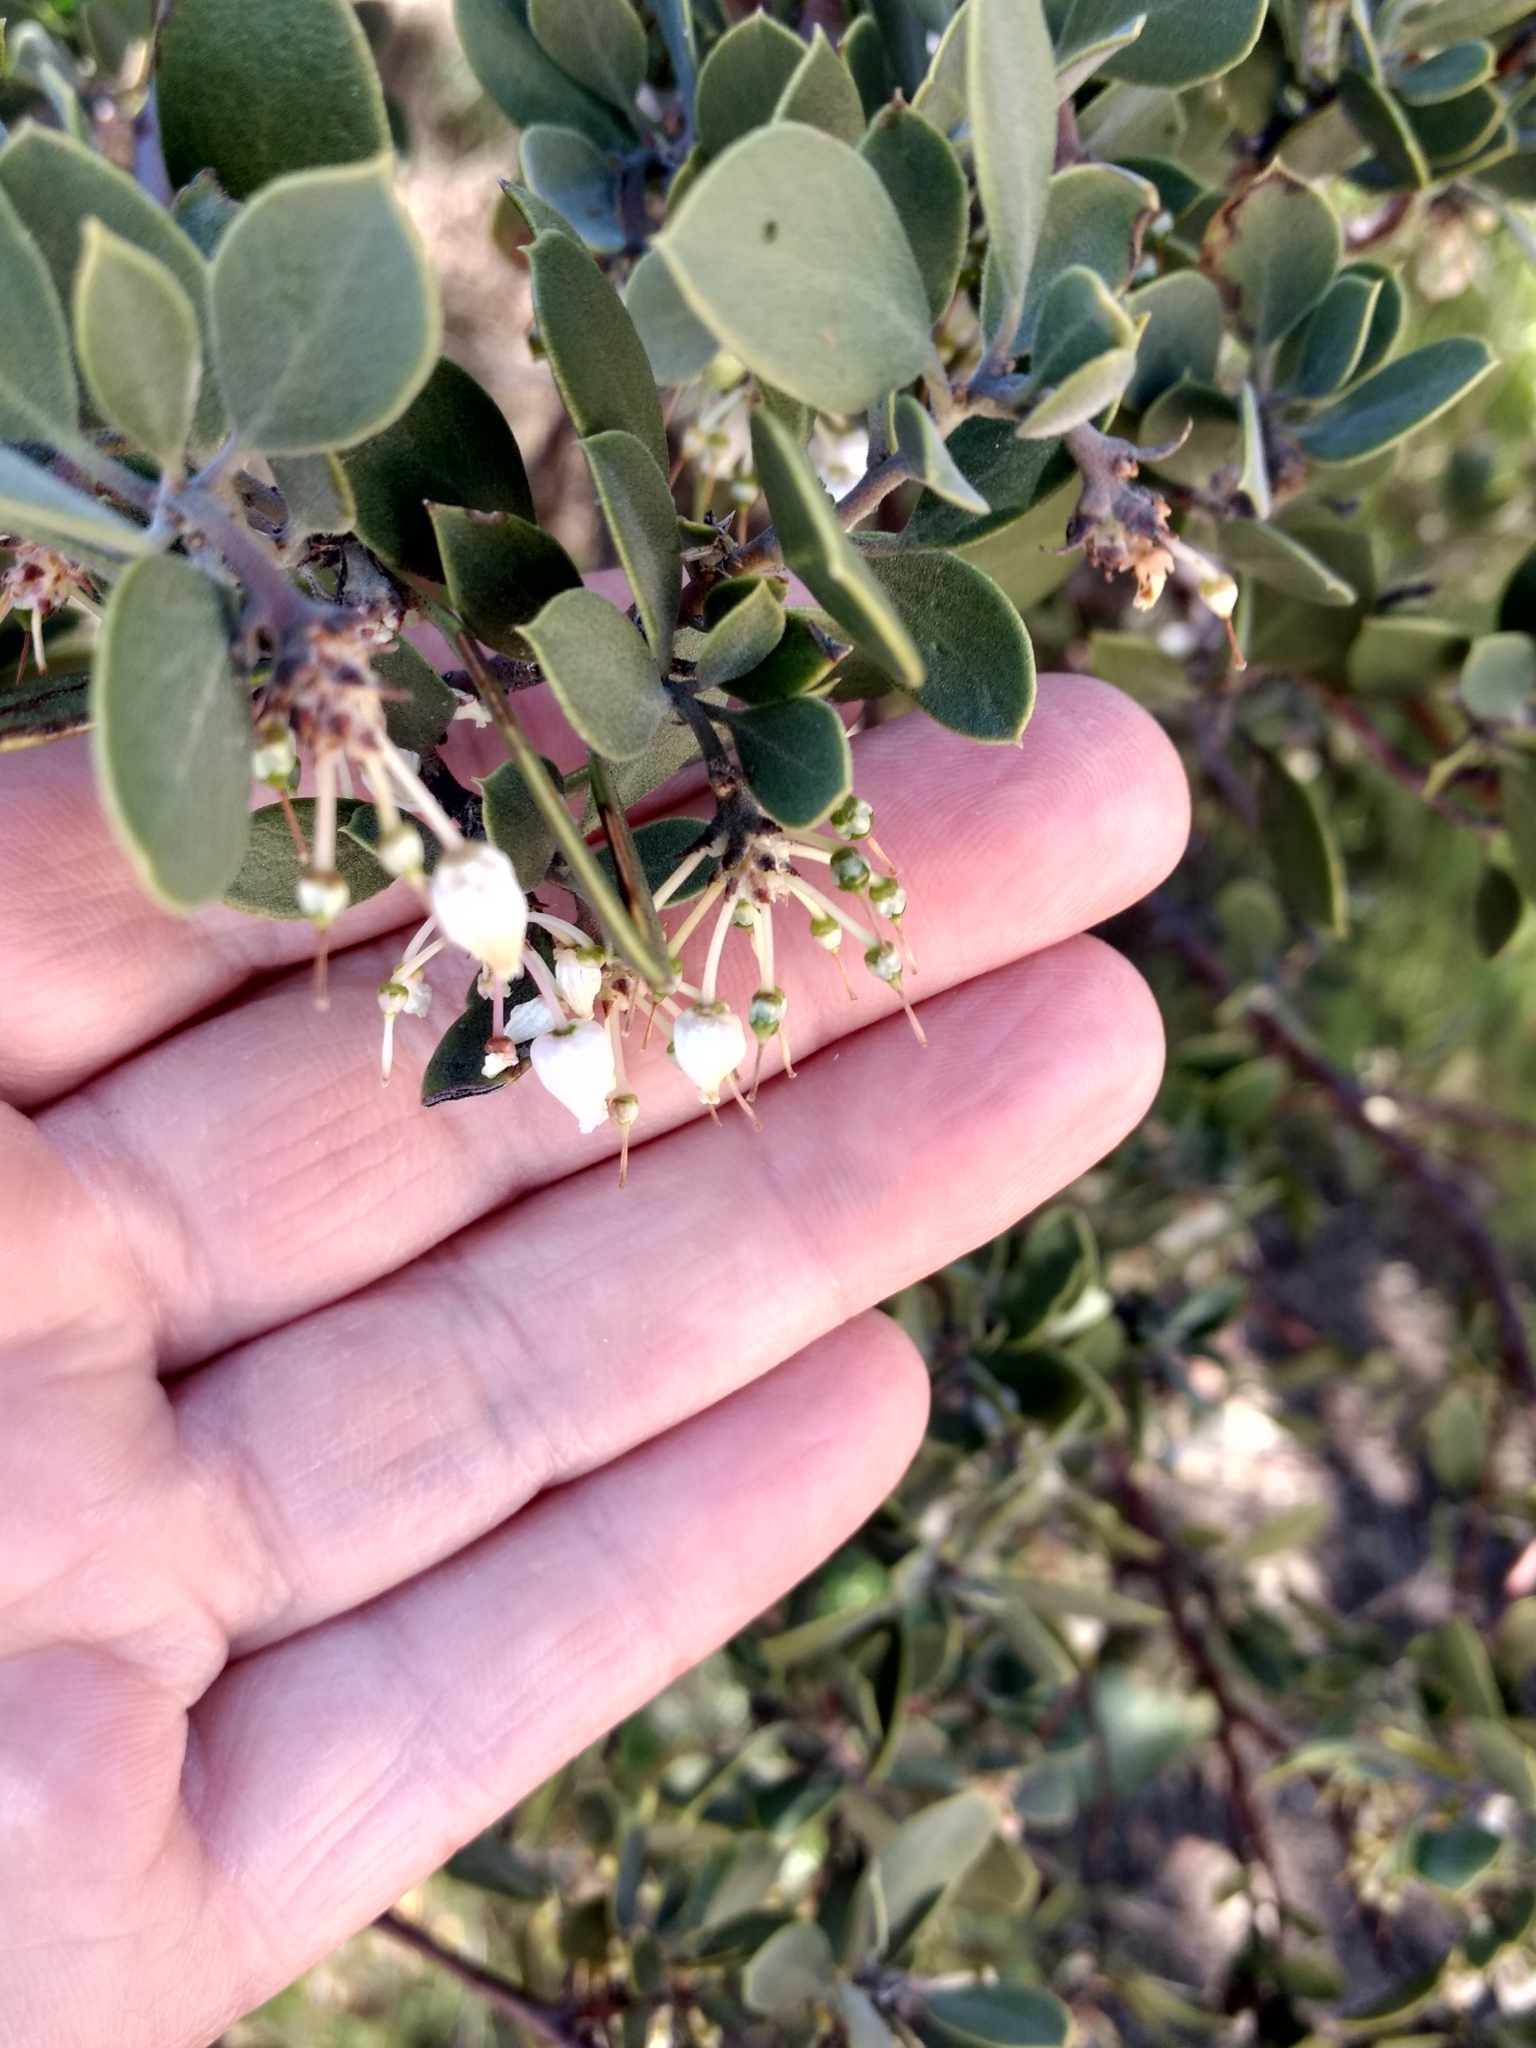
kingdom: Plantae
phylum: Tracheophyta
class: Magnoliopsida
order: Ericales
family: Ericaceae
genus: Arctostaphylos
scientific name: Arctostaphylos pungens
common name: Mexican manzanita
